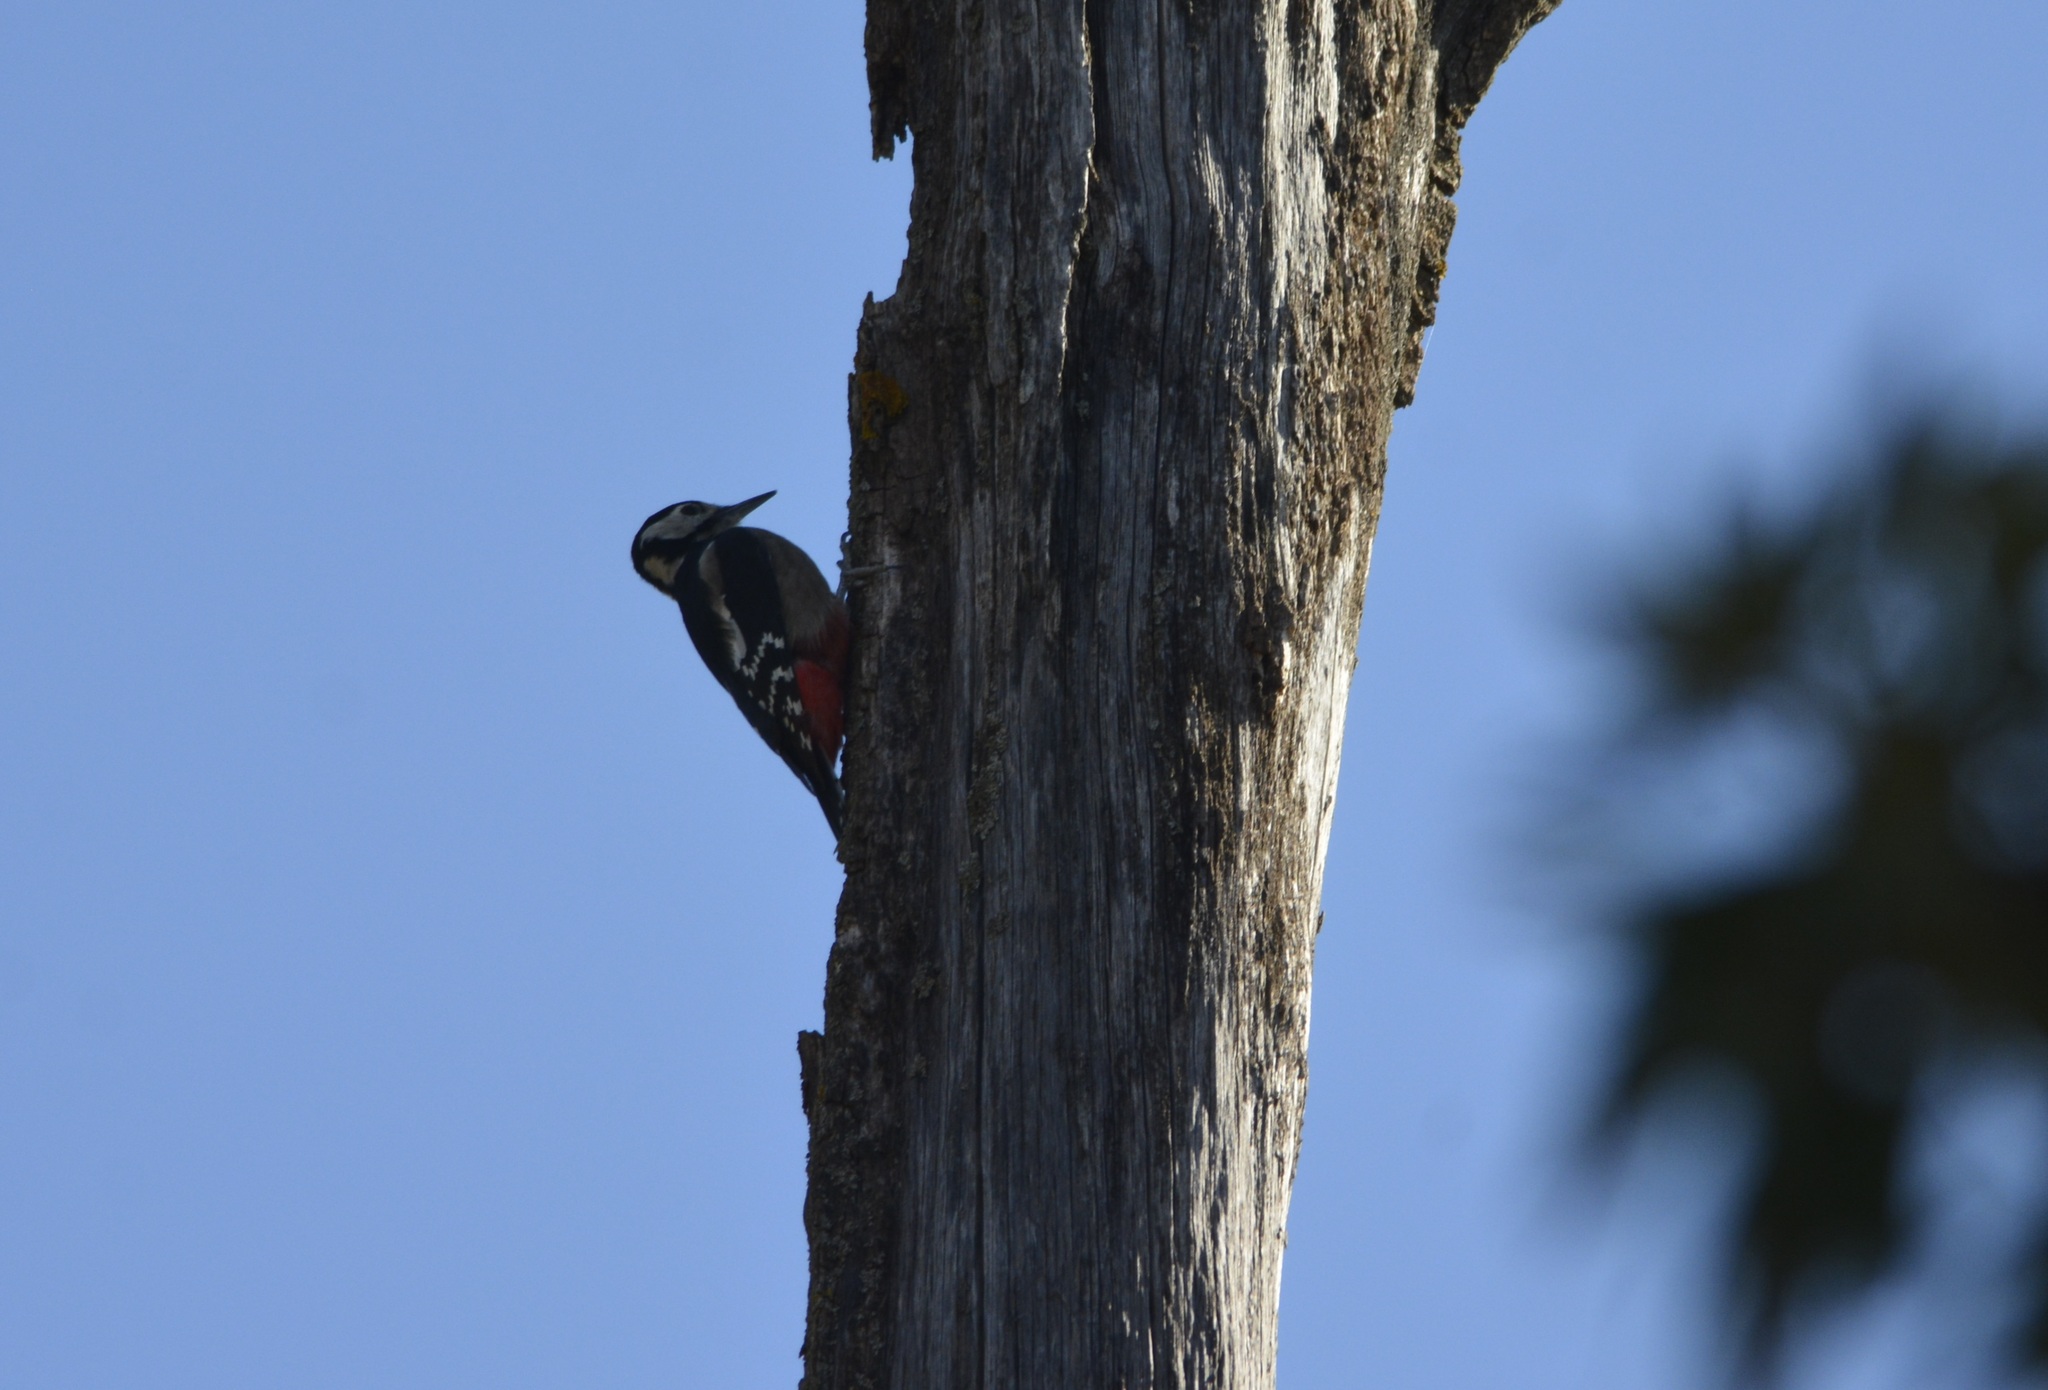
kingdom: Animalia
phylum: Chordata
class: Aves
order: Piciformes
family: Picidae
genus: Dendrocopos
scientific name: Dendrocopos major
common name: Great spotted woodpecker
